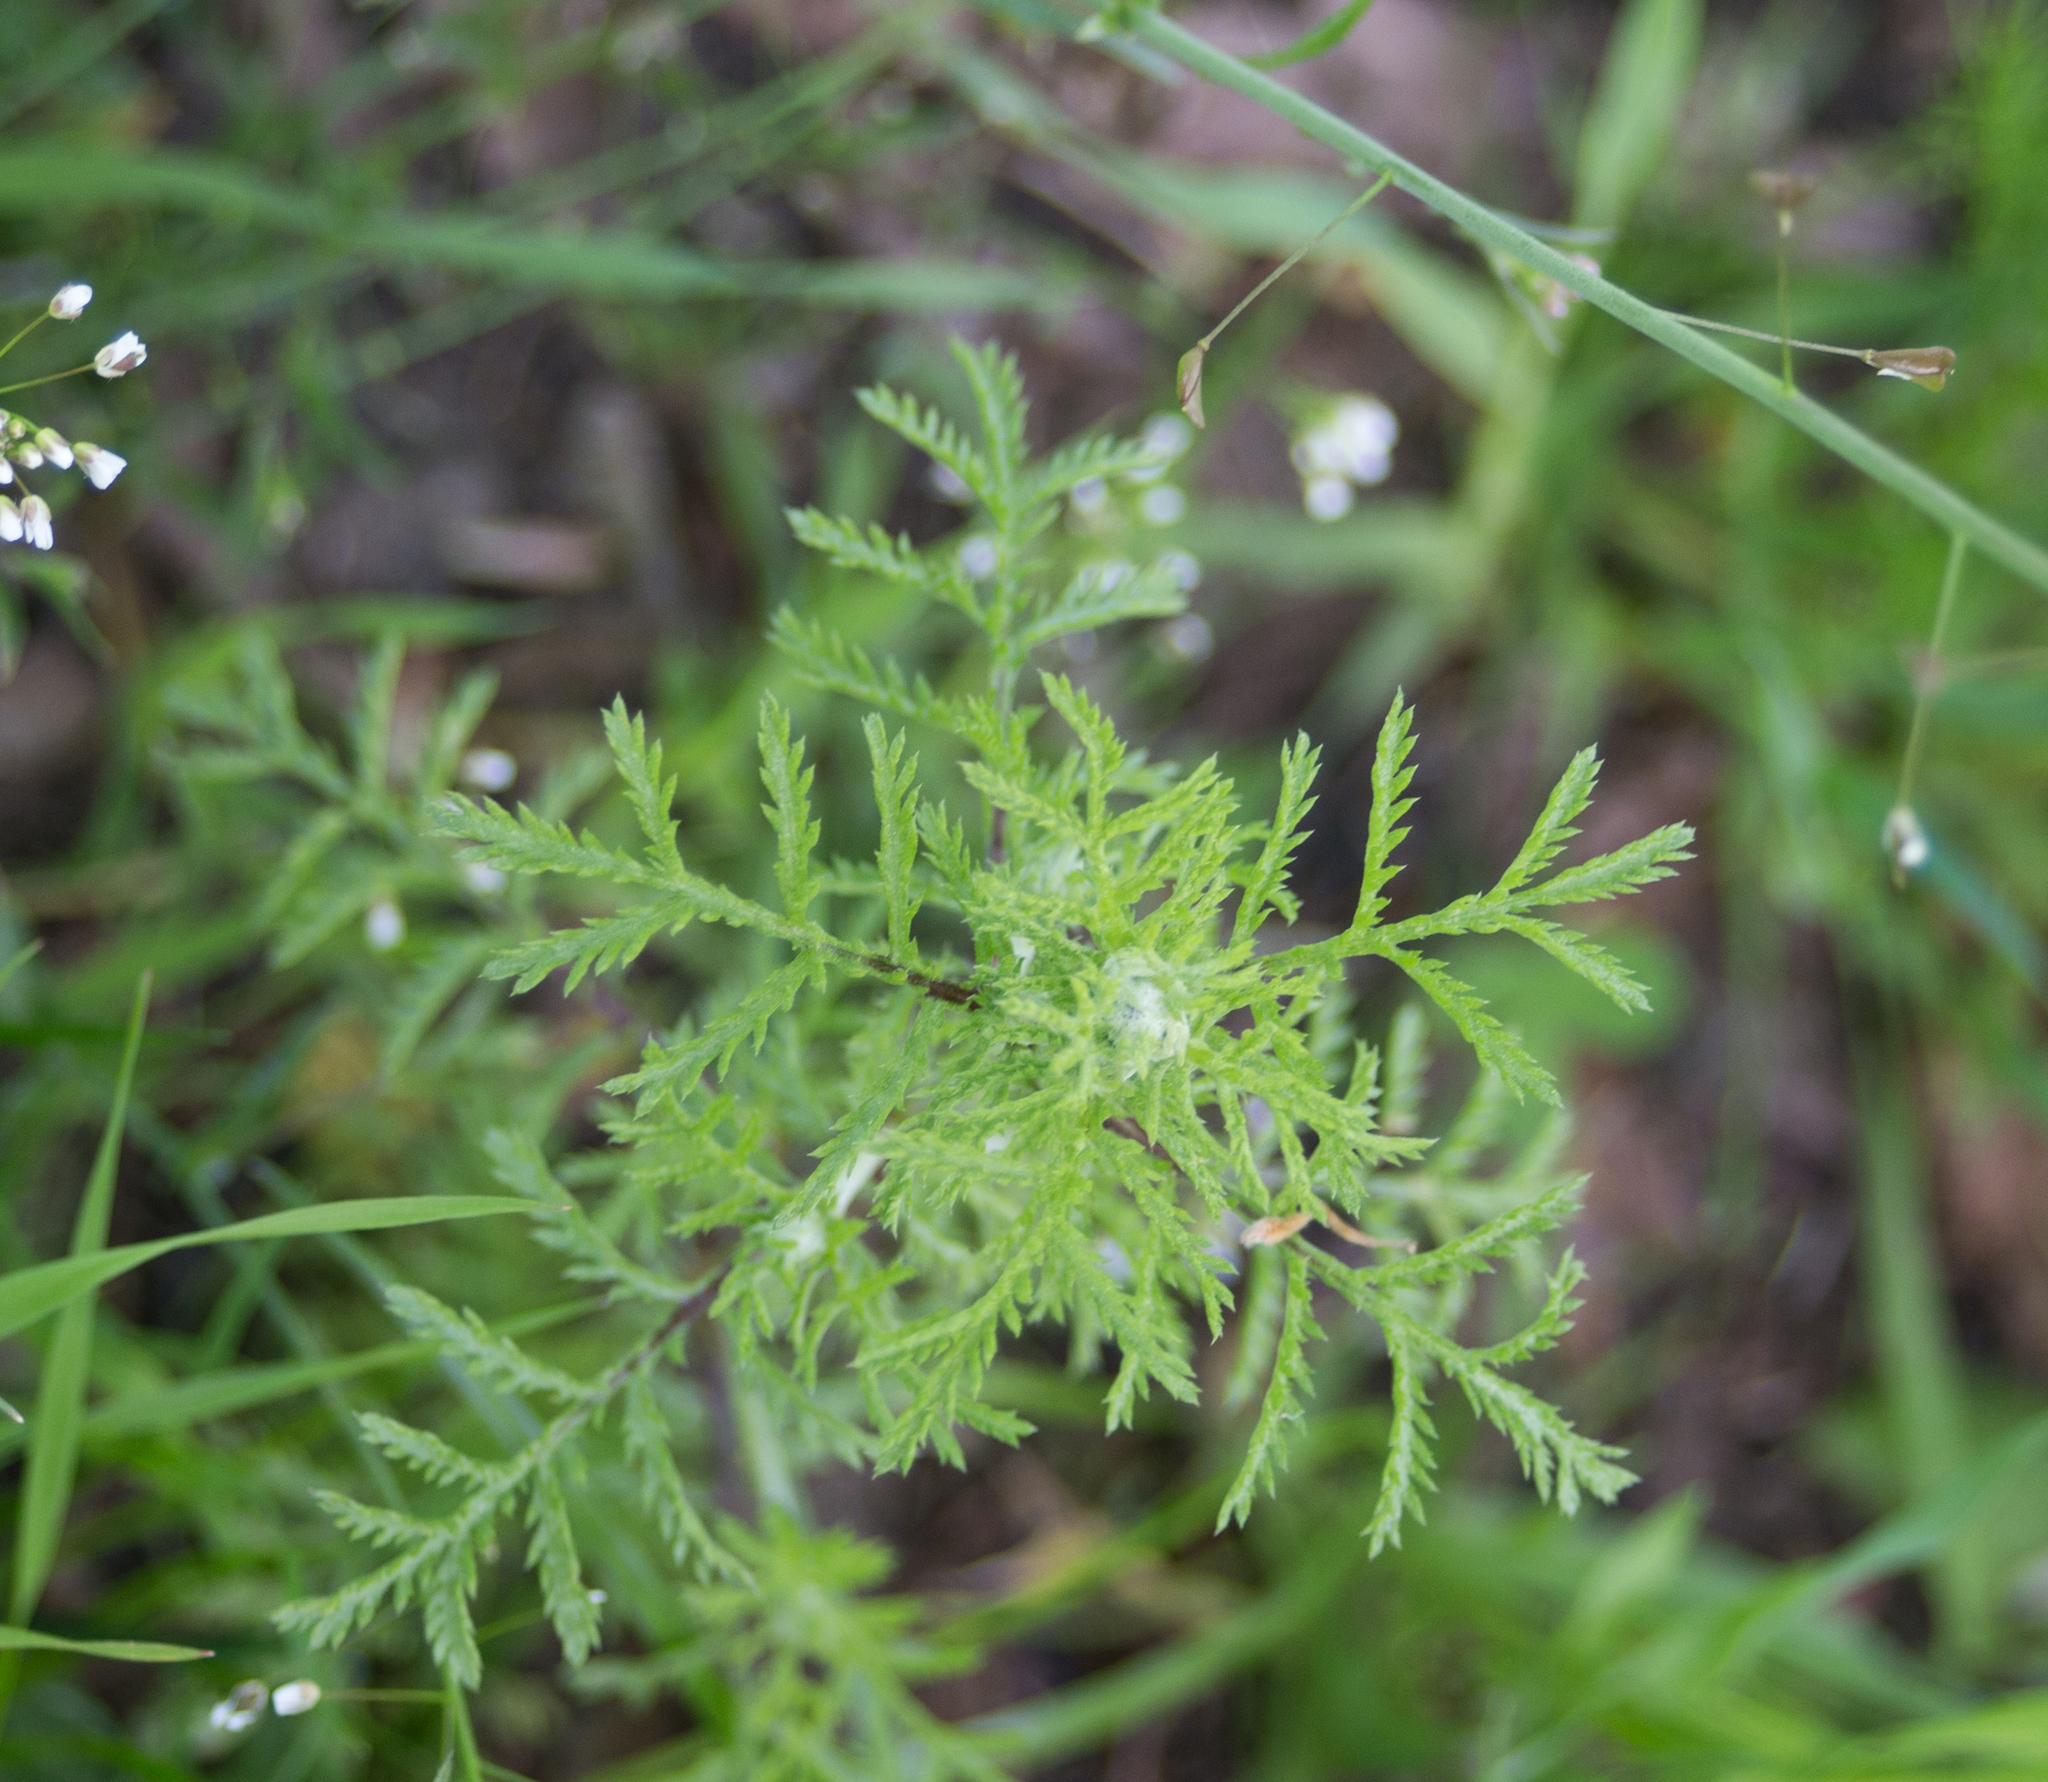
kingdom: Plantae
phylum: Tracheophyta
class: Magnoliopsida
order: Asterales
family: Asteraceae
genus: Cota
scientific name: Cota tinctoria
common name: Golden chamomile
